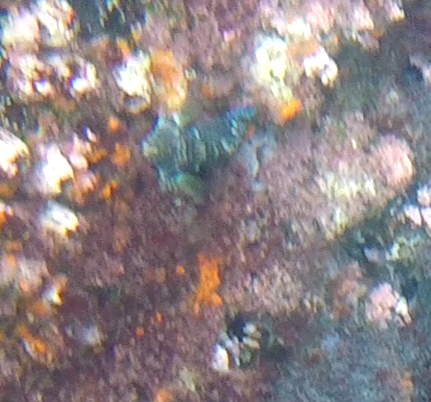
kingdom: Animalia
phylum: Chordata
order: Perciformes
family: Cirrhitidae
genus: Cirrhitus
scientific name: Cirrhitus rivulatus
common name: Giant hawkfish
